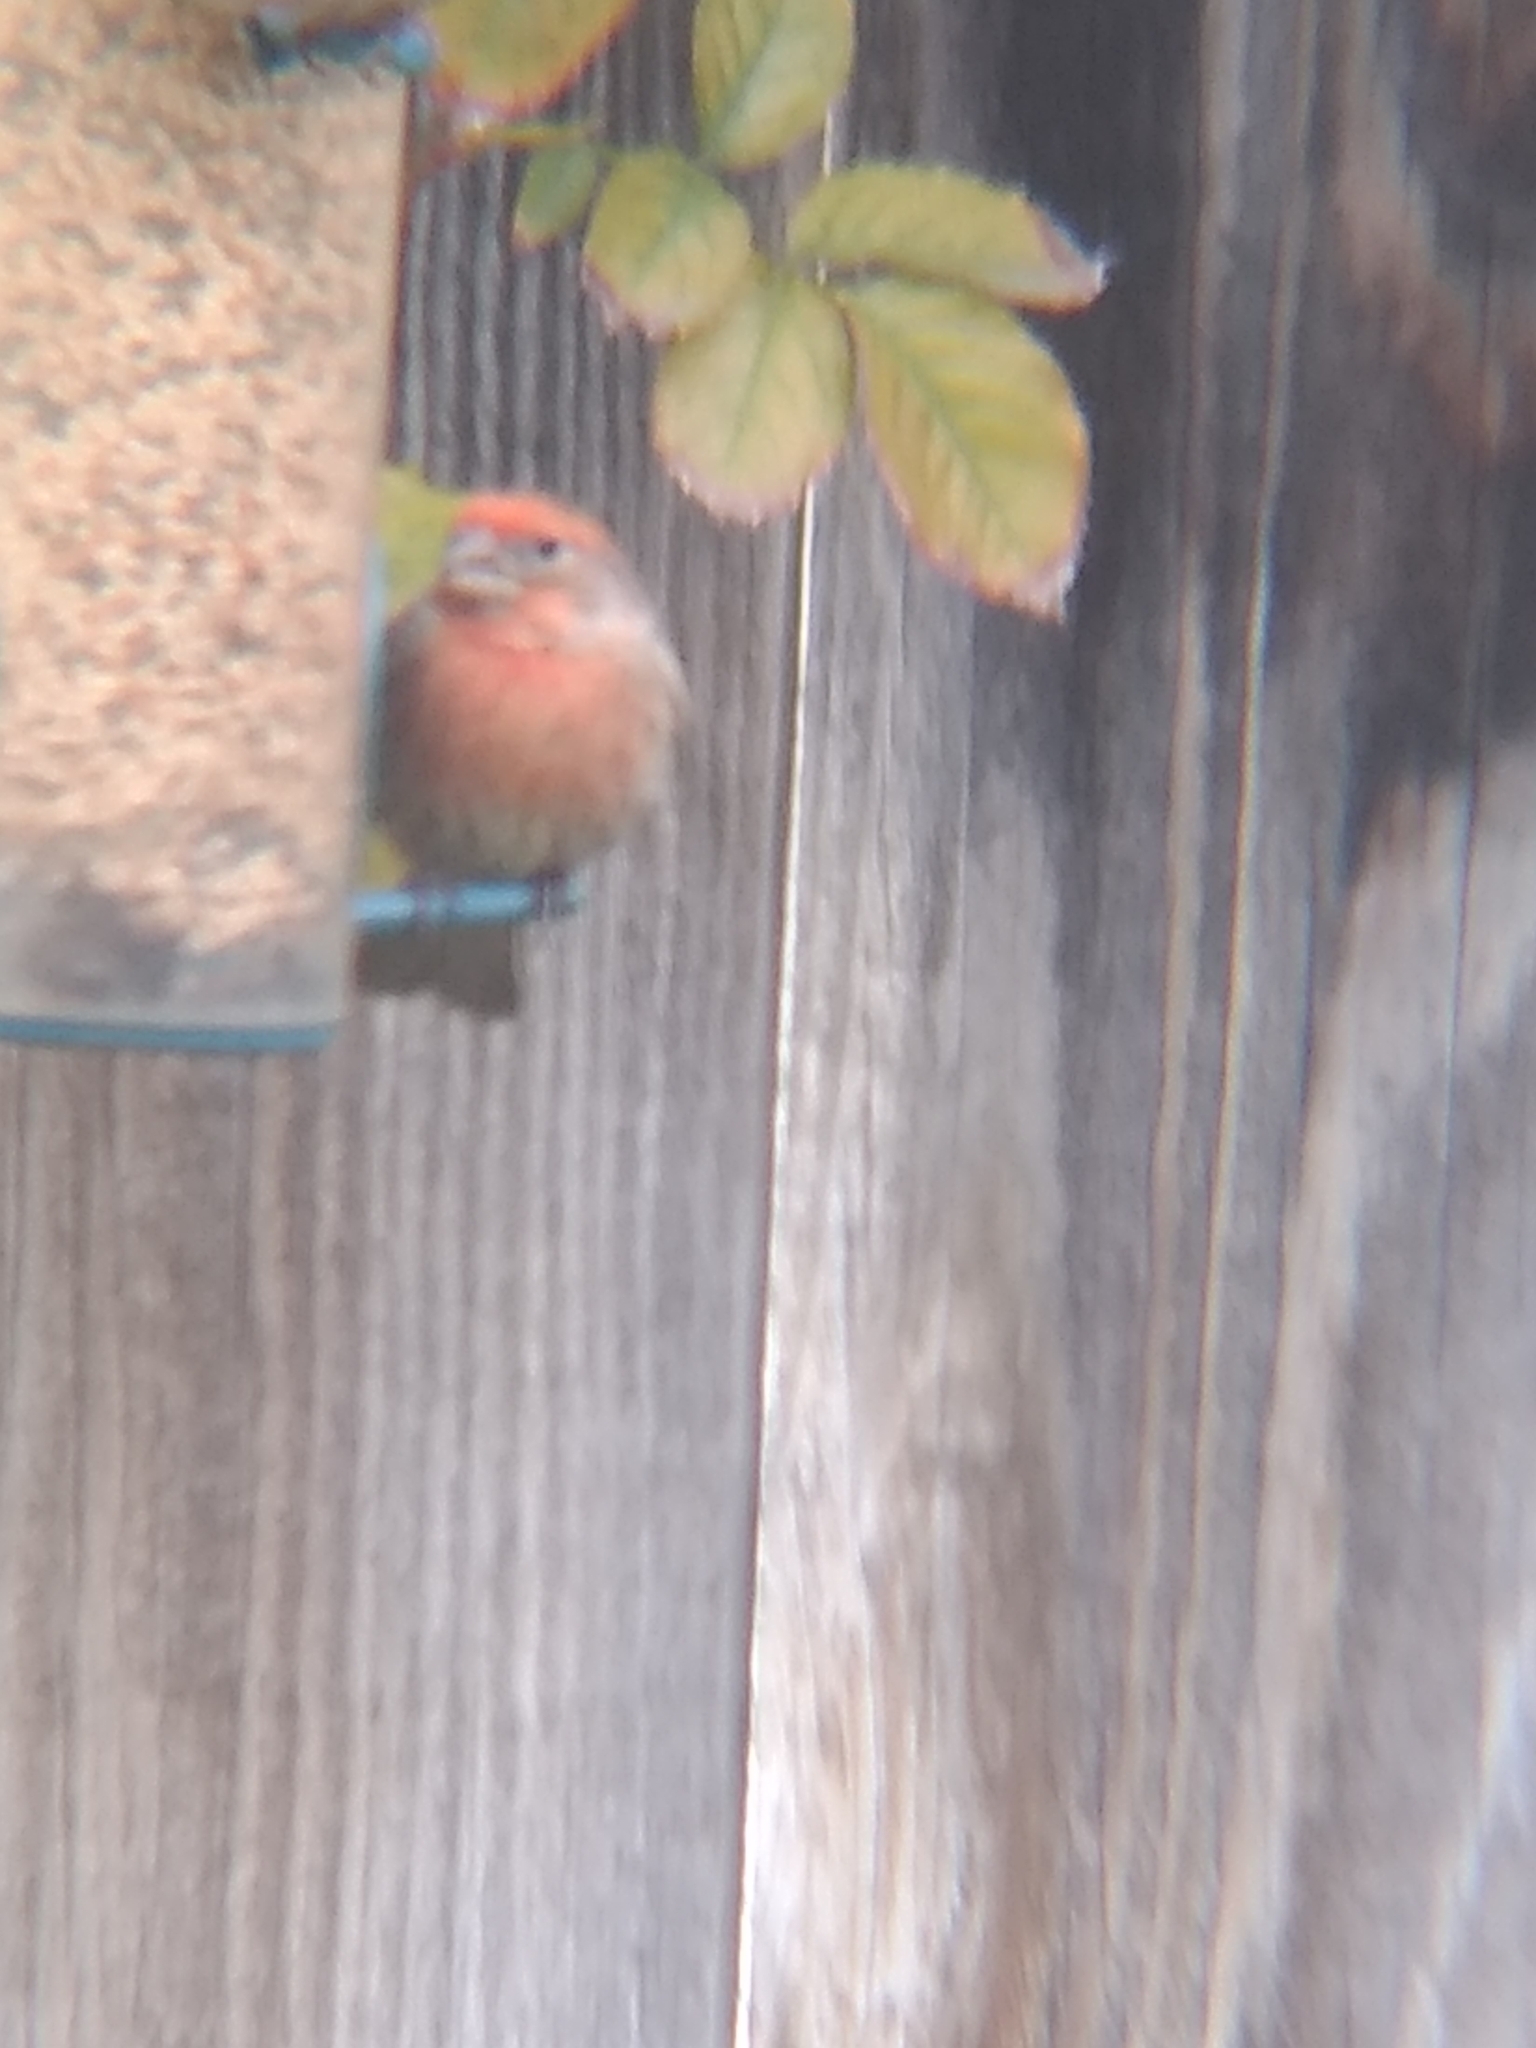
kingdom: Animalia
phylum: Chordata
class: Aves
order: Passeriformes
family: Fringillidae
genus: Haemorhous
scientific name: Haemorhous mexicanus
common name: House finch
